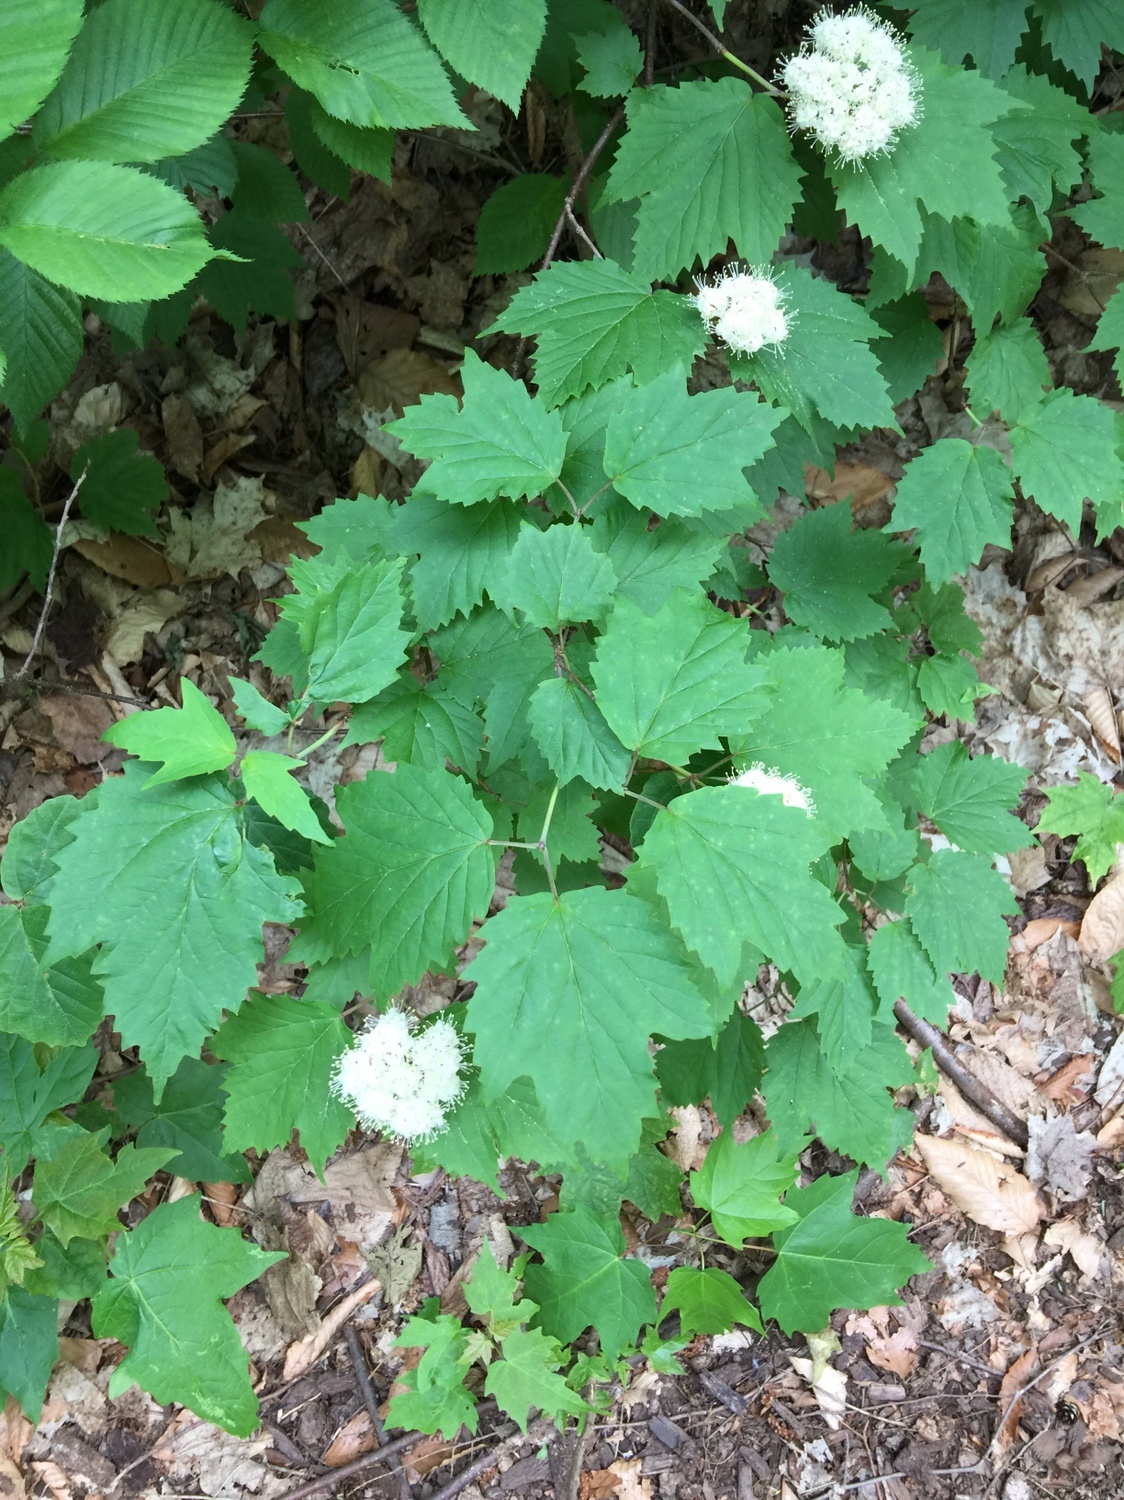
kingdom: Plantae
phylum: Tracheophyta
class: Magnoliopsida
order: Dipsacales
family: Viburnaceae
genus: Viburnum
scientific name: Viburnum acerifolium
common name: Dockmackie
